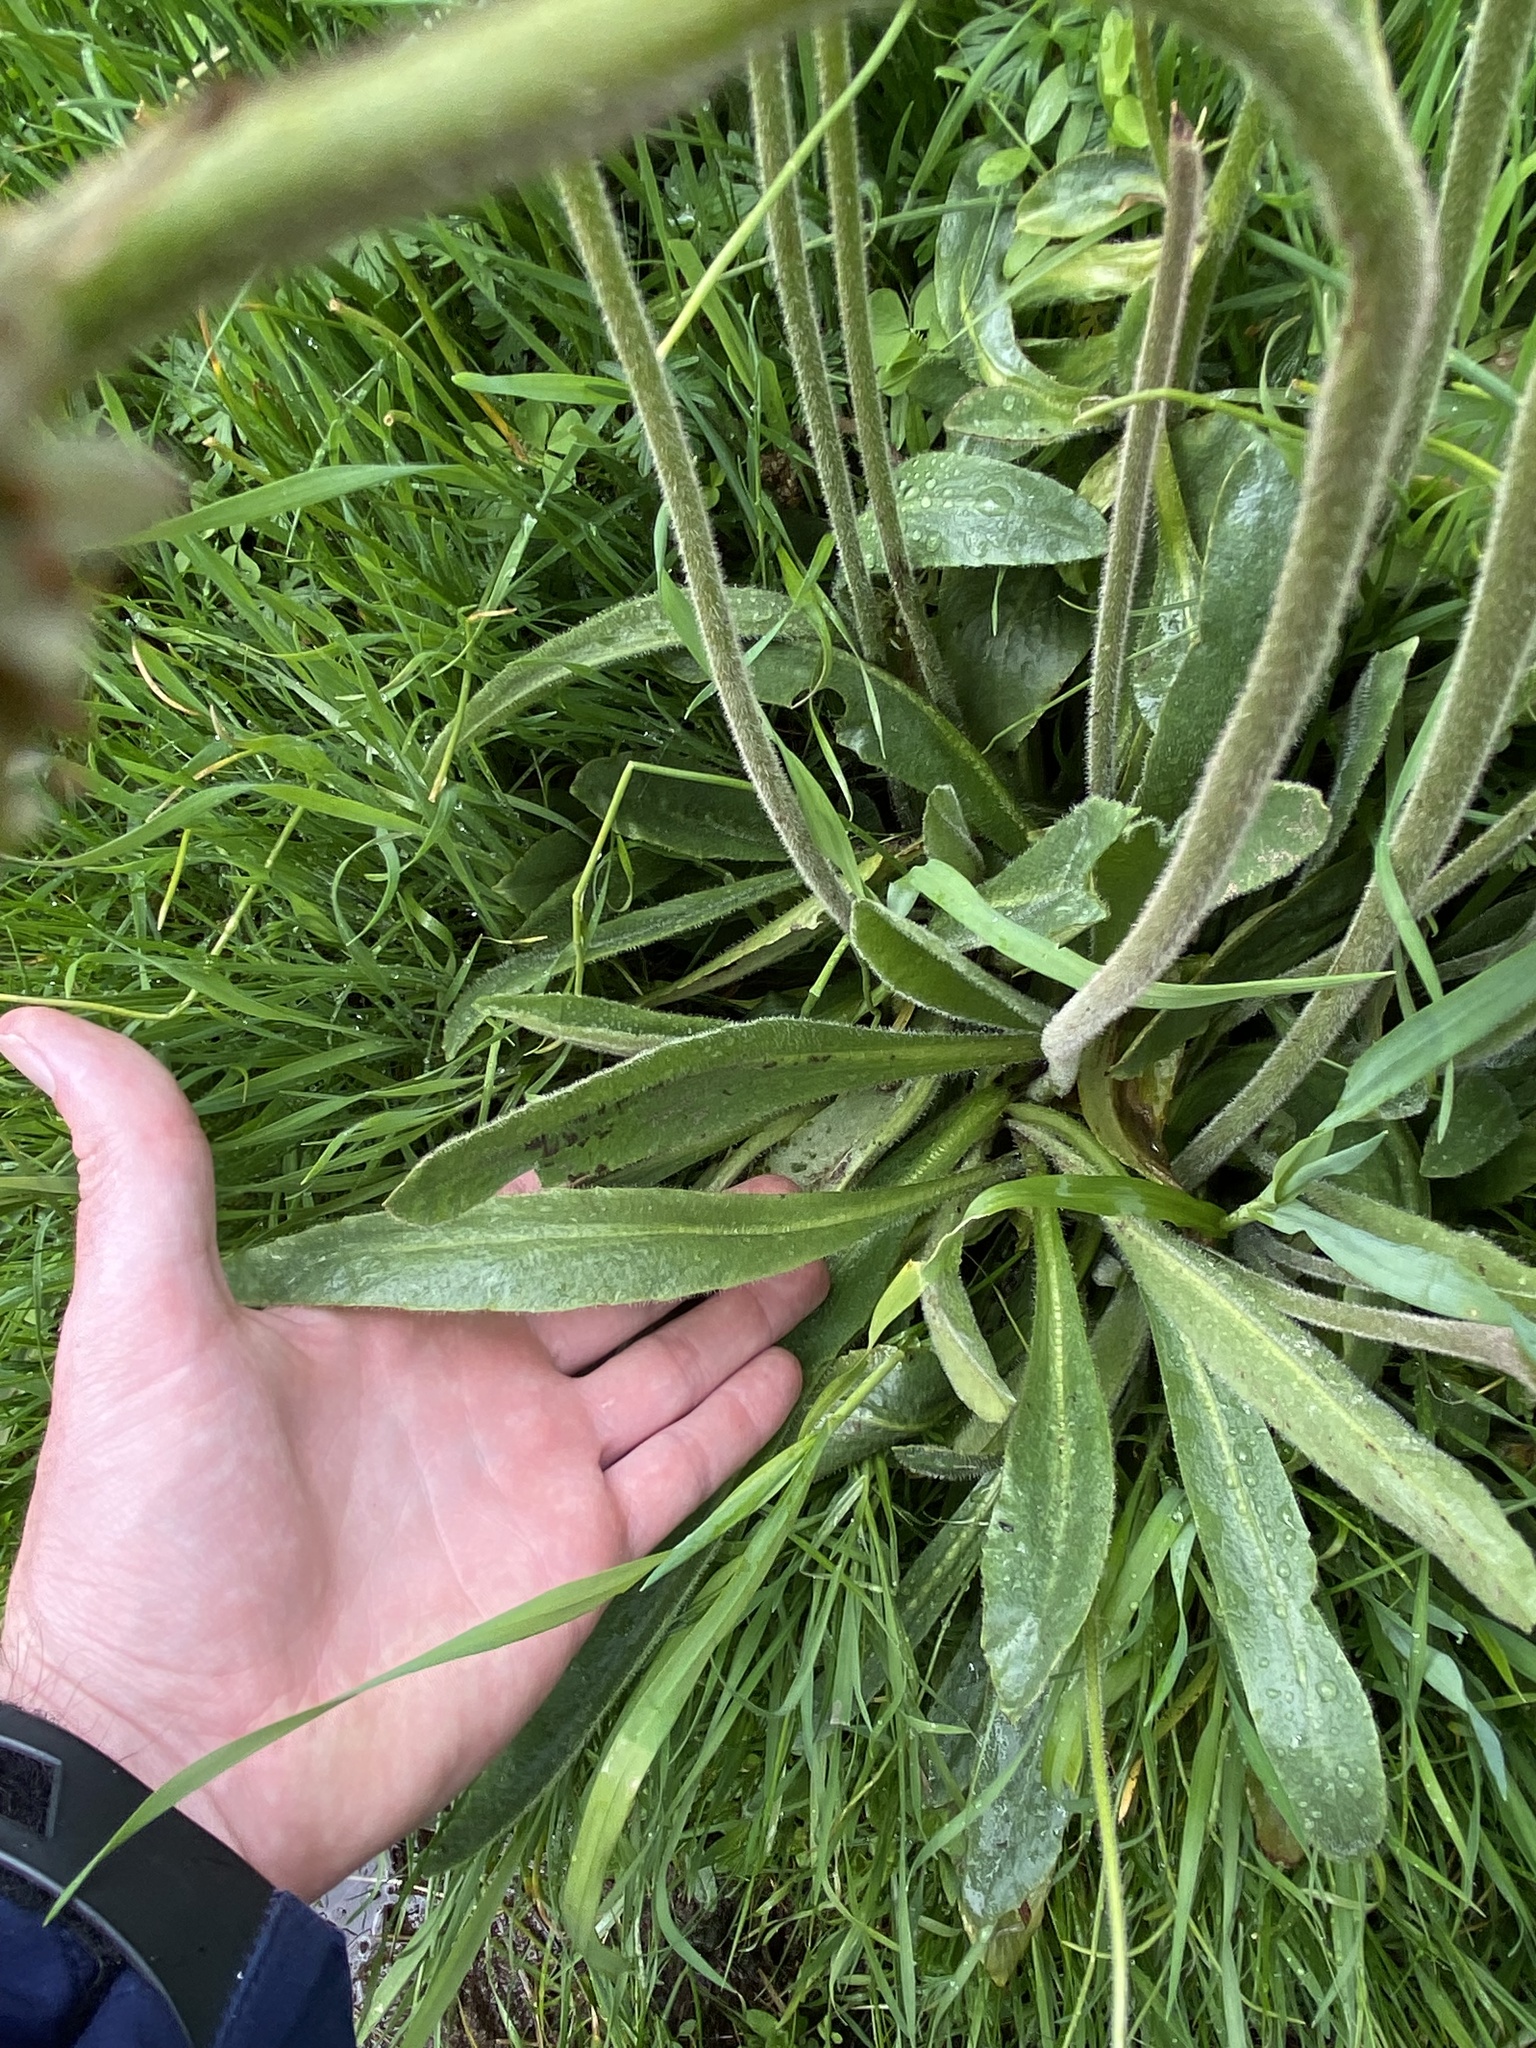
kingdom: Plantae
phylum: Tracheophyta
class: Magnoliopsida
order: Saxifragales
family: Saxifragaceae
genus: Micranthes
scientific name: Micranthes oregana
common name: Bog saxifrage
